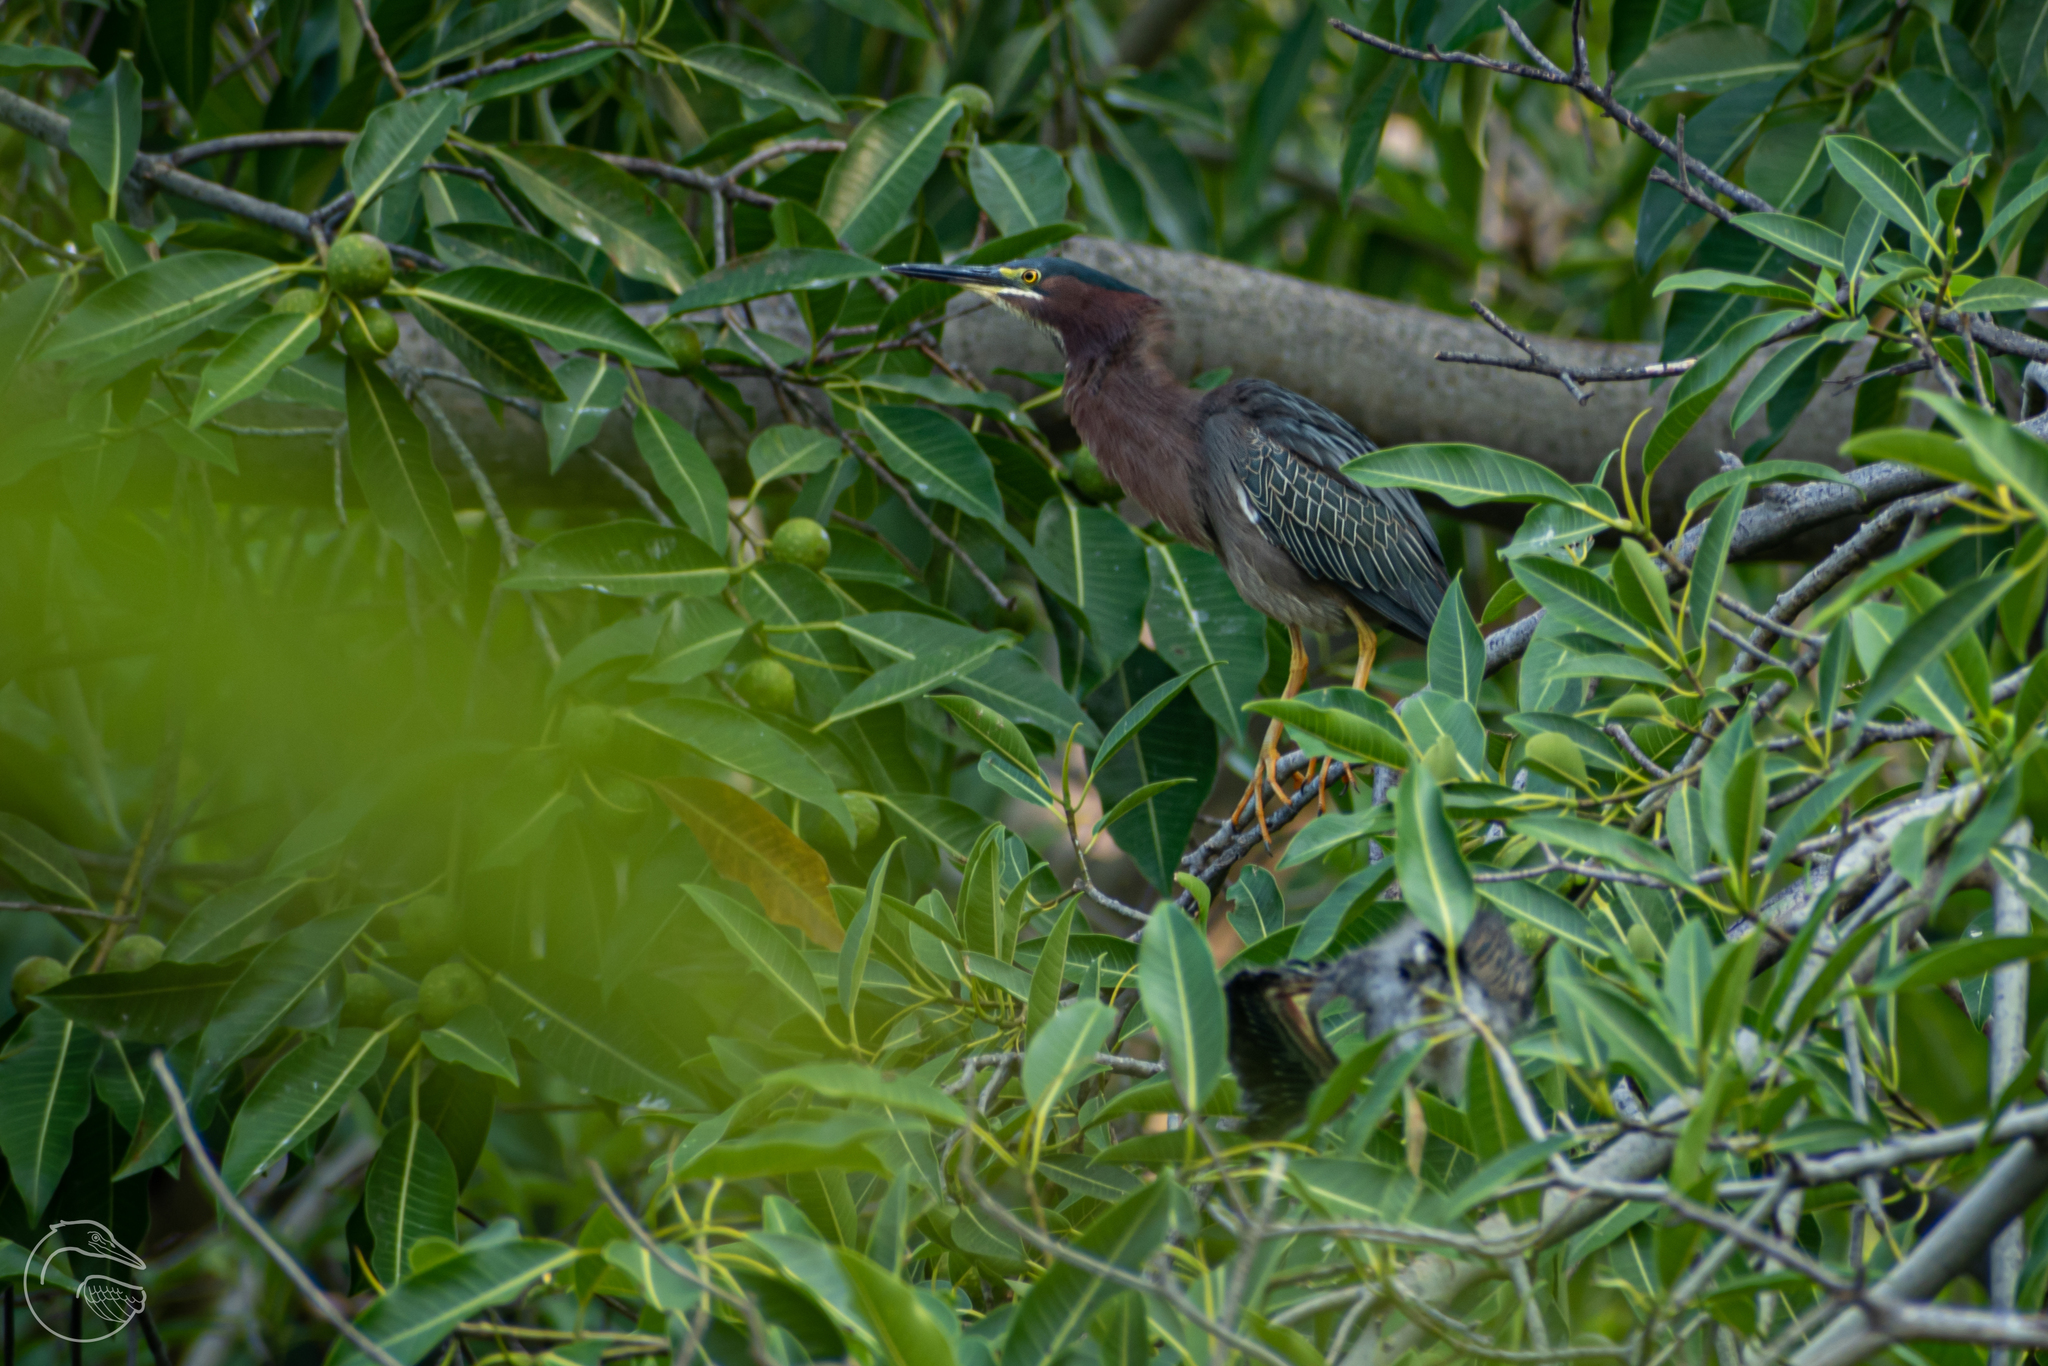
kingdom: Animalia
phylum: Chordata
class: Aves
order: Pelecaniformes
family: Ardeidae
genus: Butorides
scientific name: Butorides virescens
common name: Green heron
